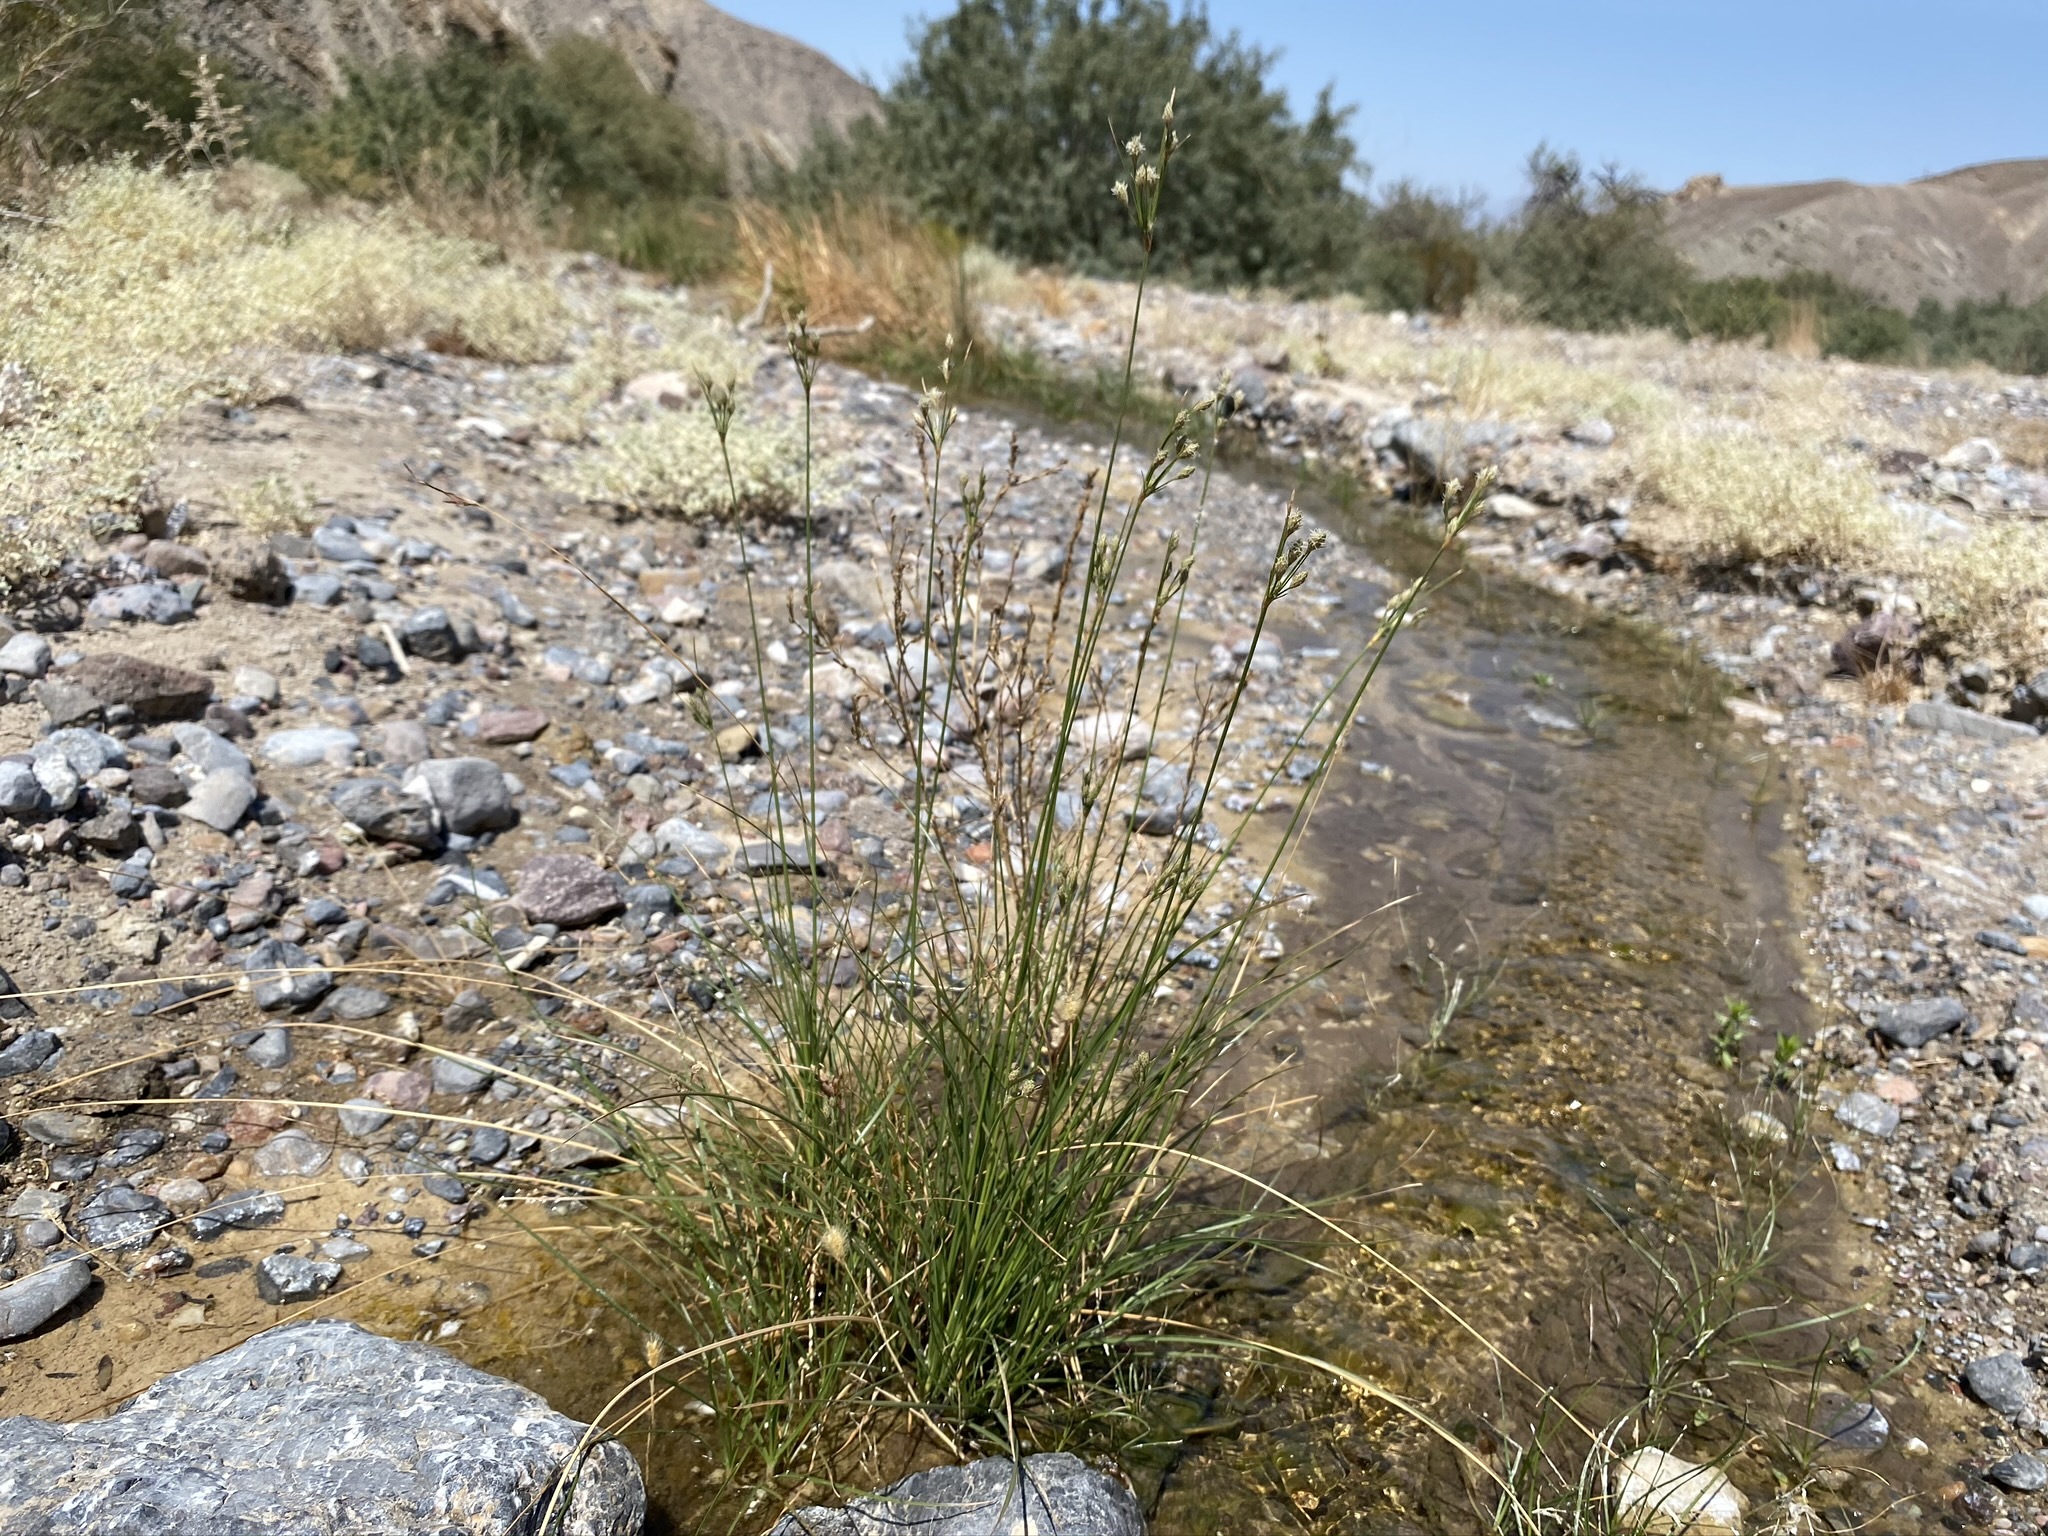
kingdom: Plantae
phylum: Tracheophyta
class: Liliopsida
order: Poales
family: Cyperaceae
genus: Fimbristylis
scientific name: Fimbristylis thermalis
